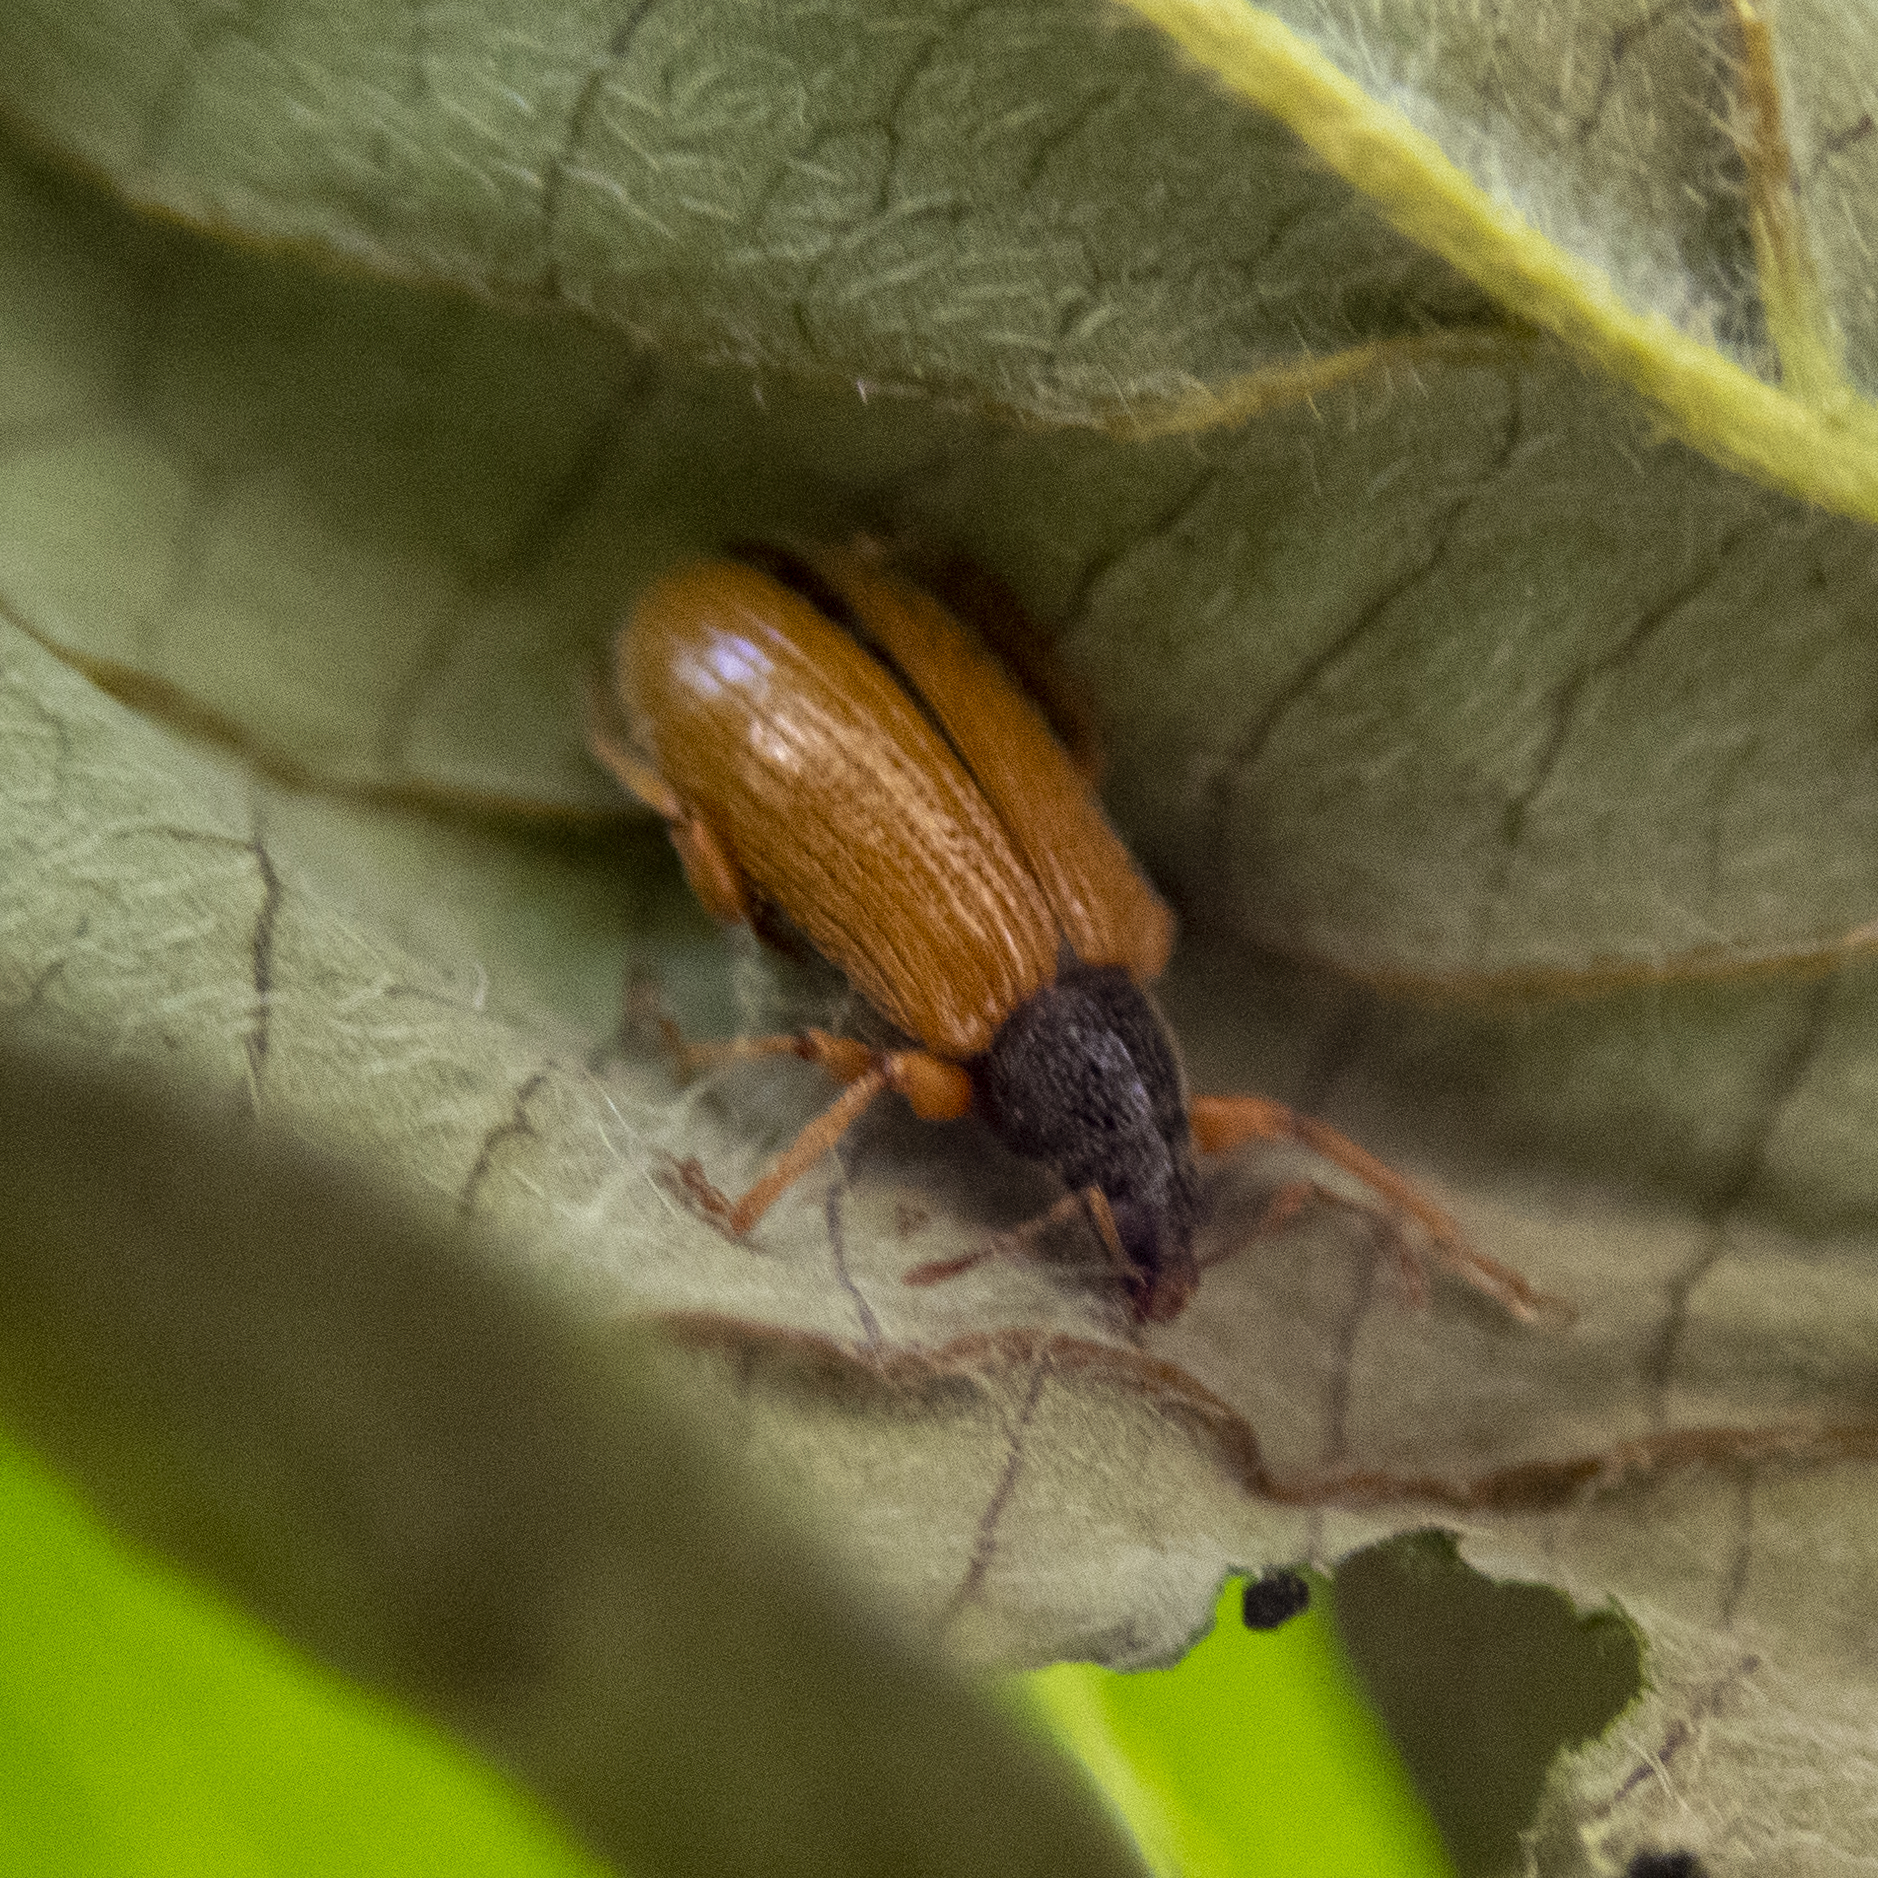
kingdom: Animalia
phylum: Arthropoda
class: Insecta
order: Coleoptera
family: Curculionidae
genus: Phyllobius
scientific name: Phyllobius oblongus
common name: Brown leaf weevil
